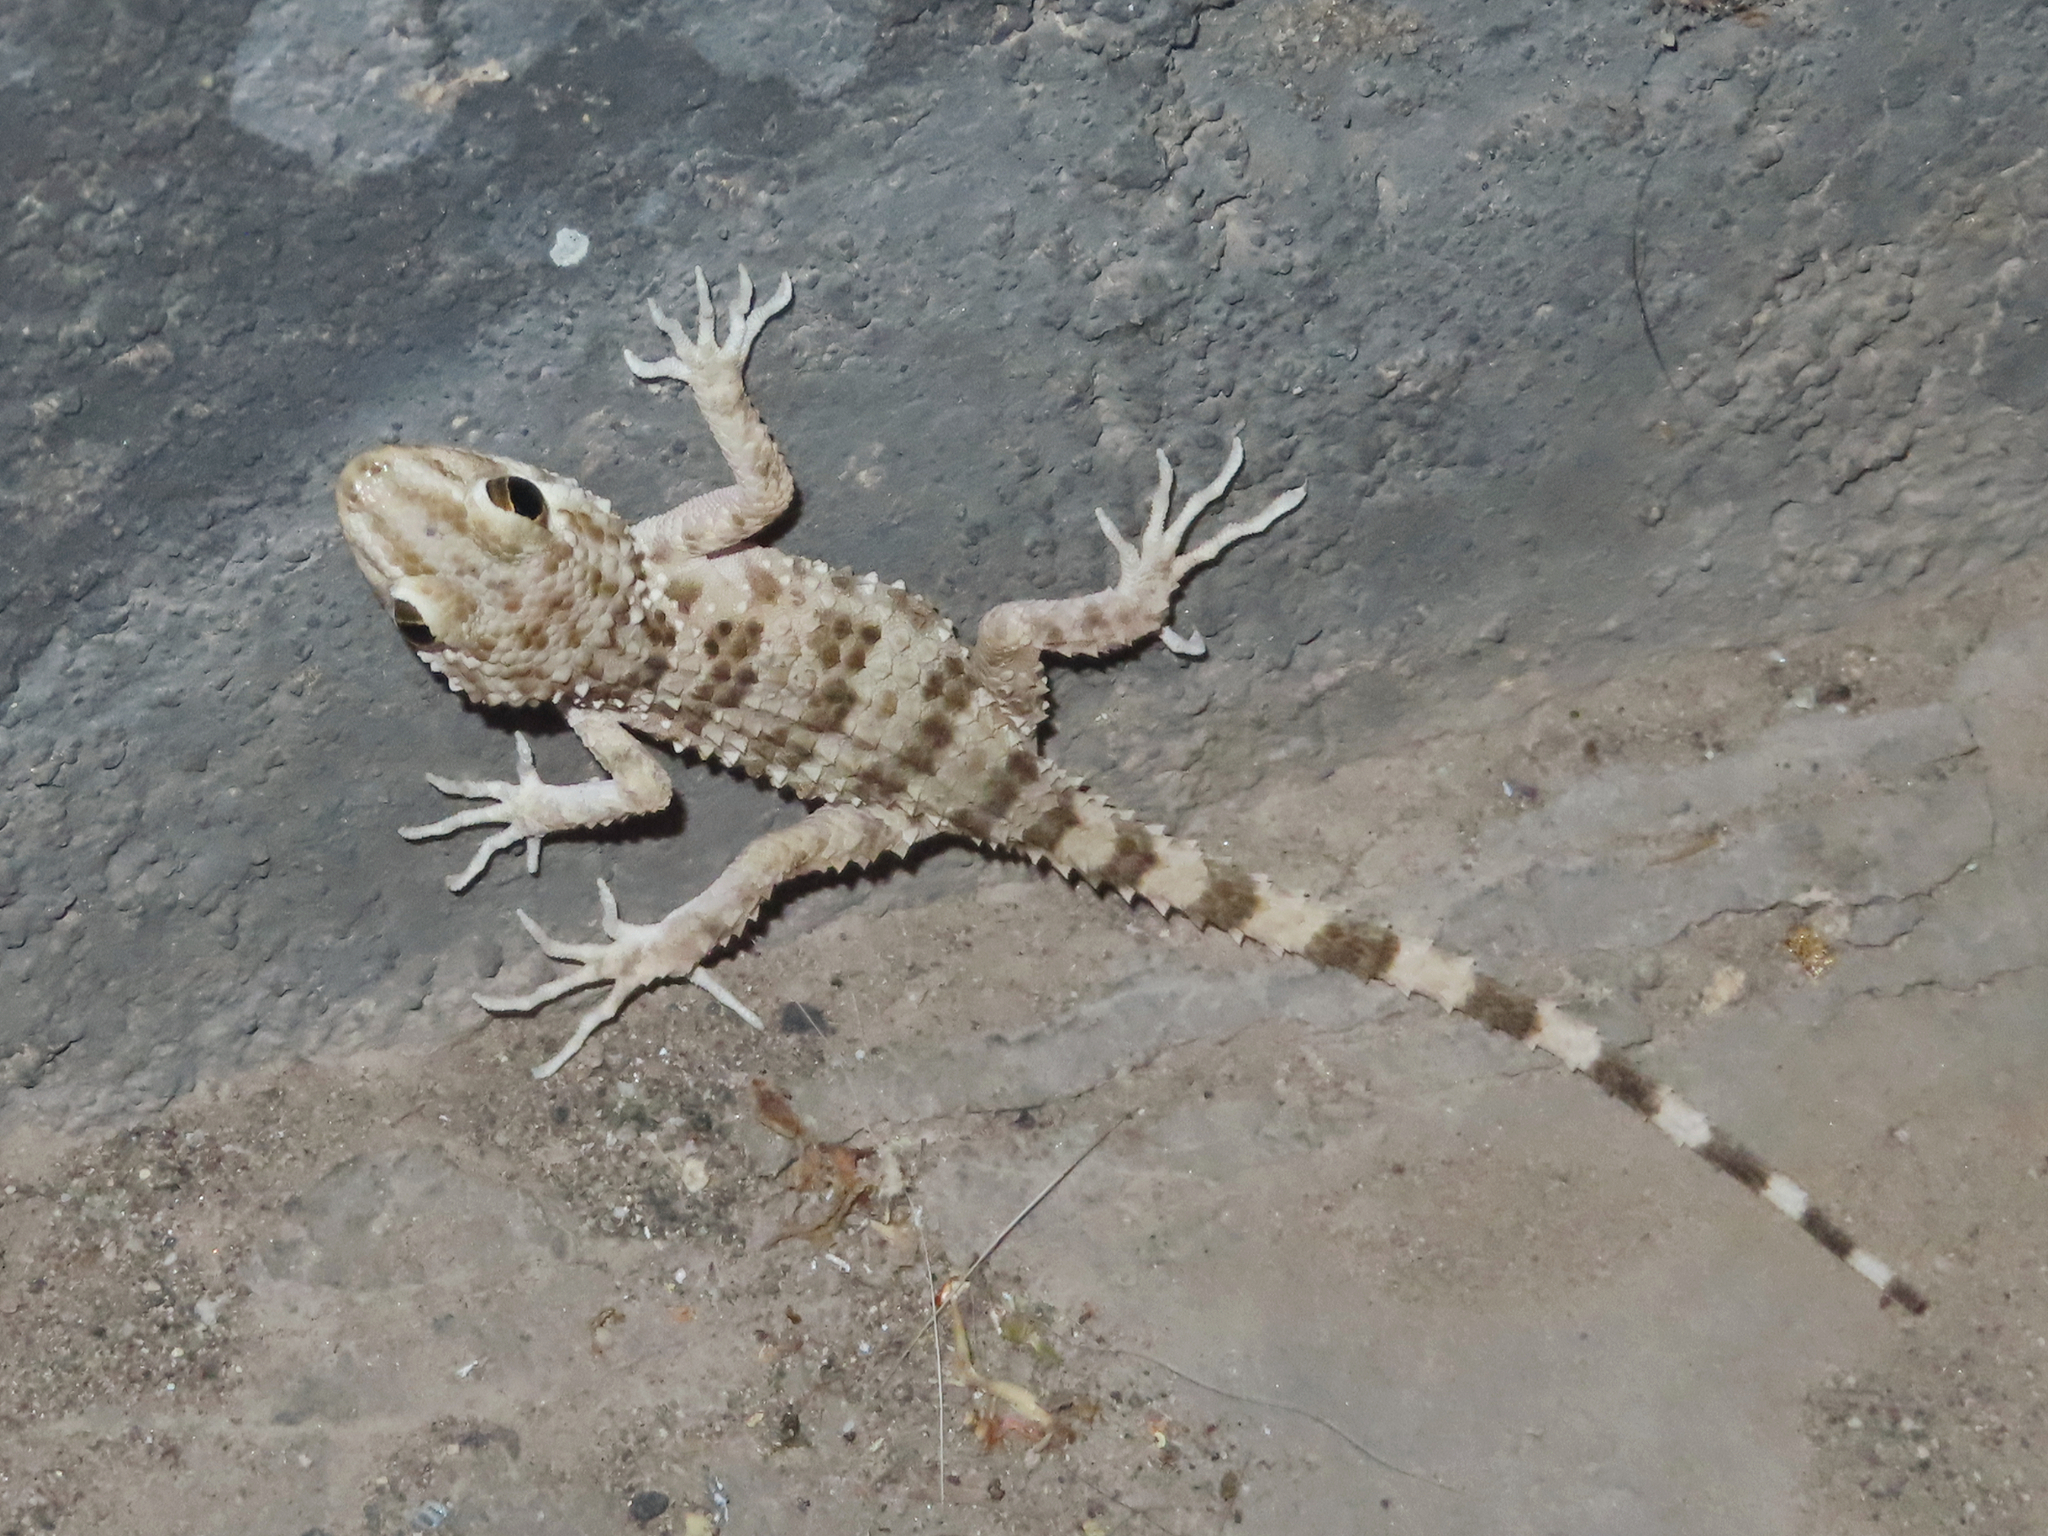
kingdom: Animalia
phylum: Chordata
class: Squamata
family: Gekkonidae
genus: Tenuidactylus
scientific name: Tenuidactylus caspius
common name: Caspian bent-toed gecko
